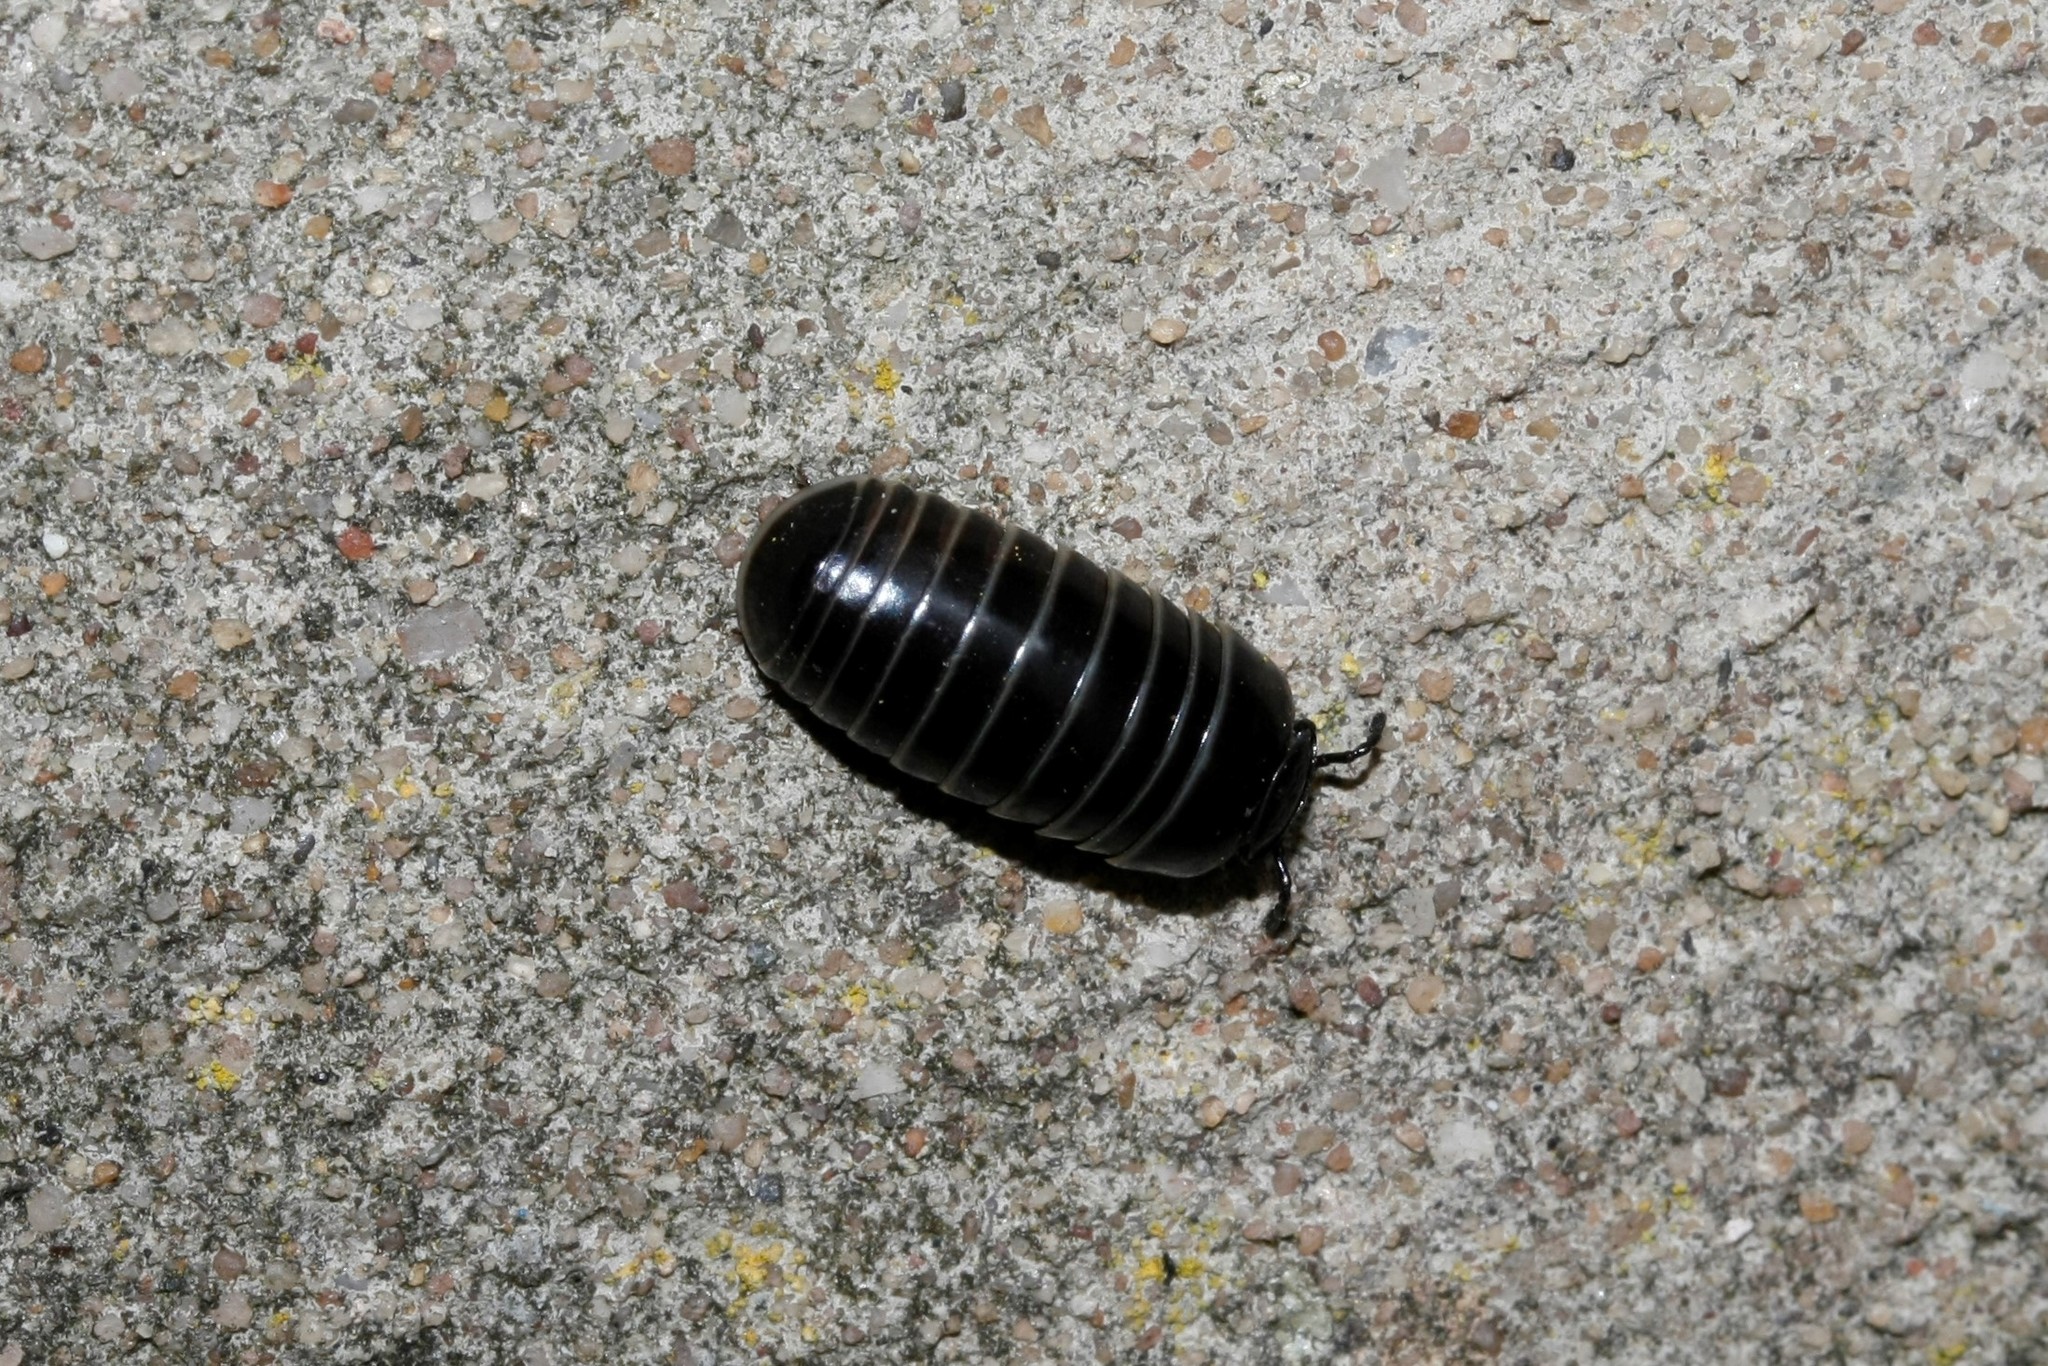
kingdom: Animalia
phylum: Arthropoda
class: Diplopoda
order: Glomerida
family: Glomeridae
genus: Glomeris
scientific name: Glomeris marginata
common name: Bordered pill millipede
